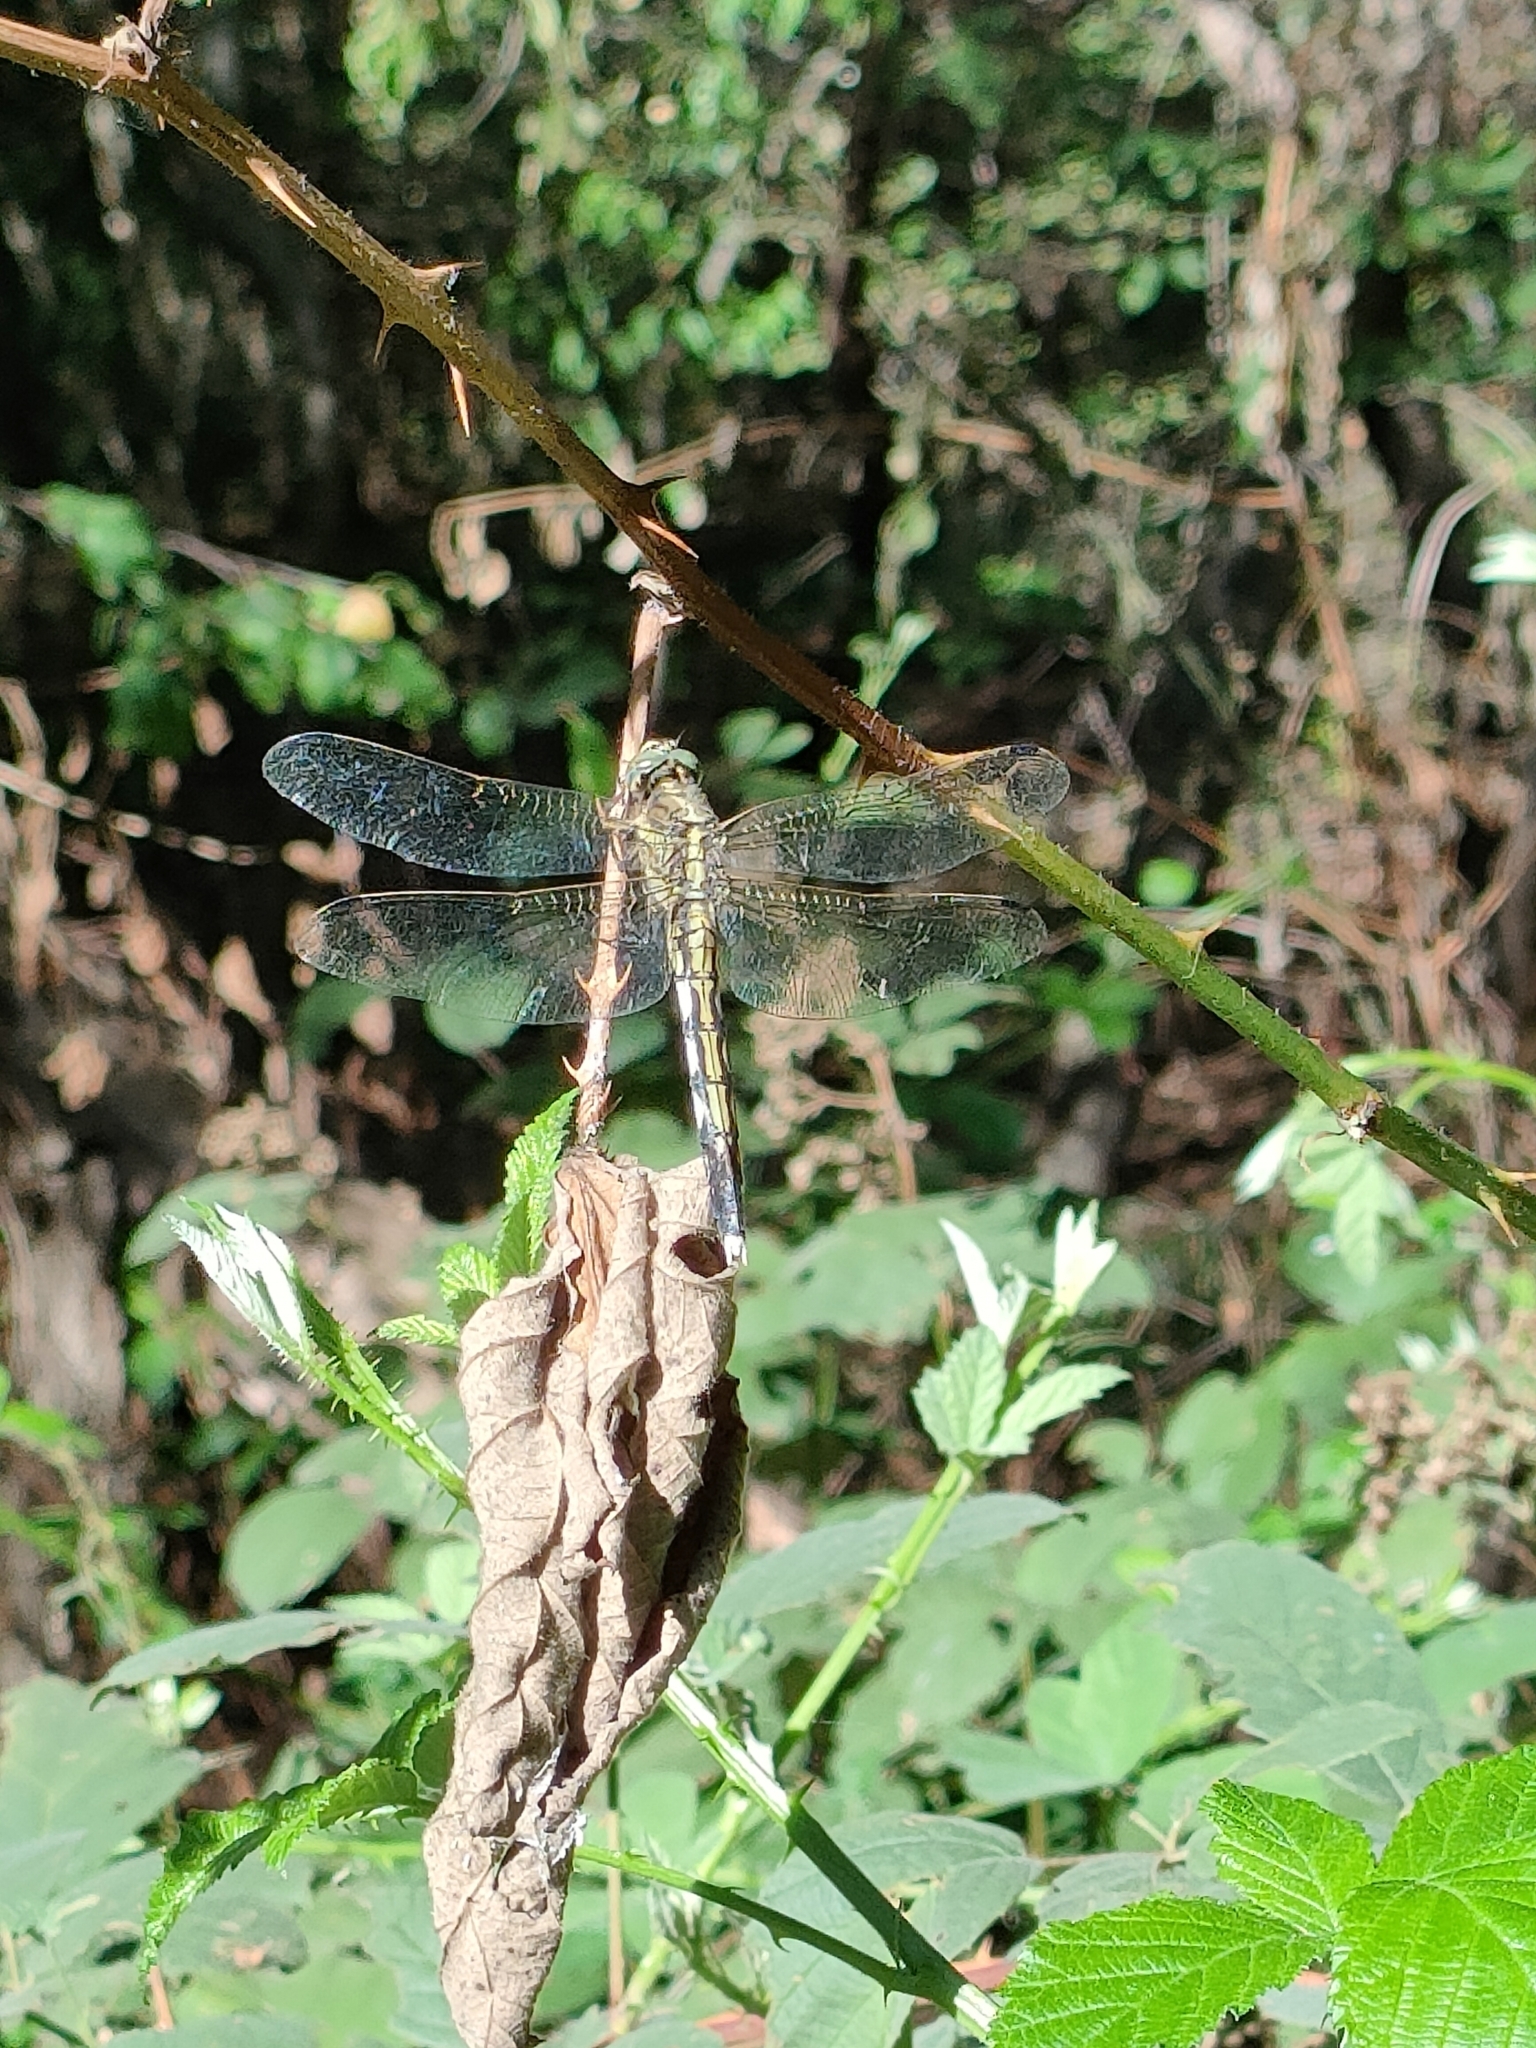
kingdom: Animalia
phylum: Arthropoda
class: Insecta
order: Odonata
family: Libellulidae
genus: Orthetrum
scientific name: Orthetrum albistylum
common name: White-tailed skimmer
